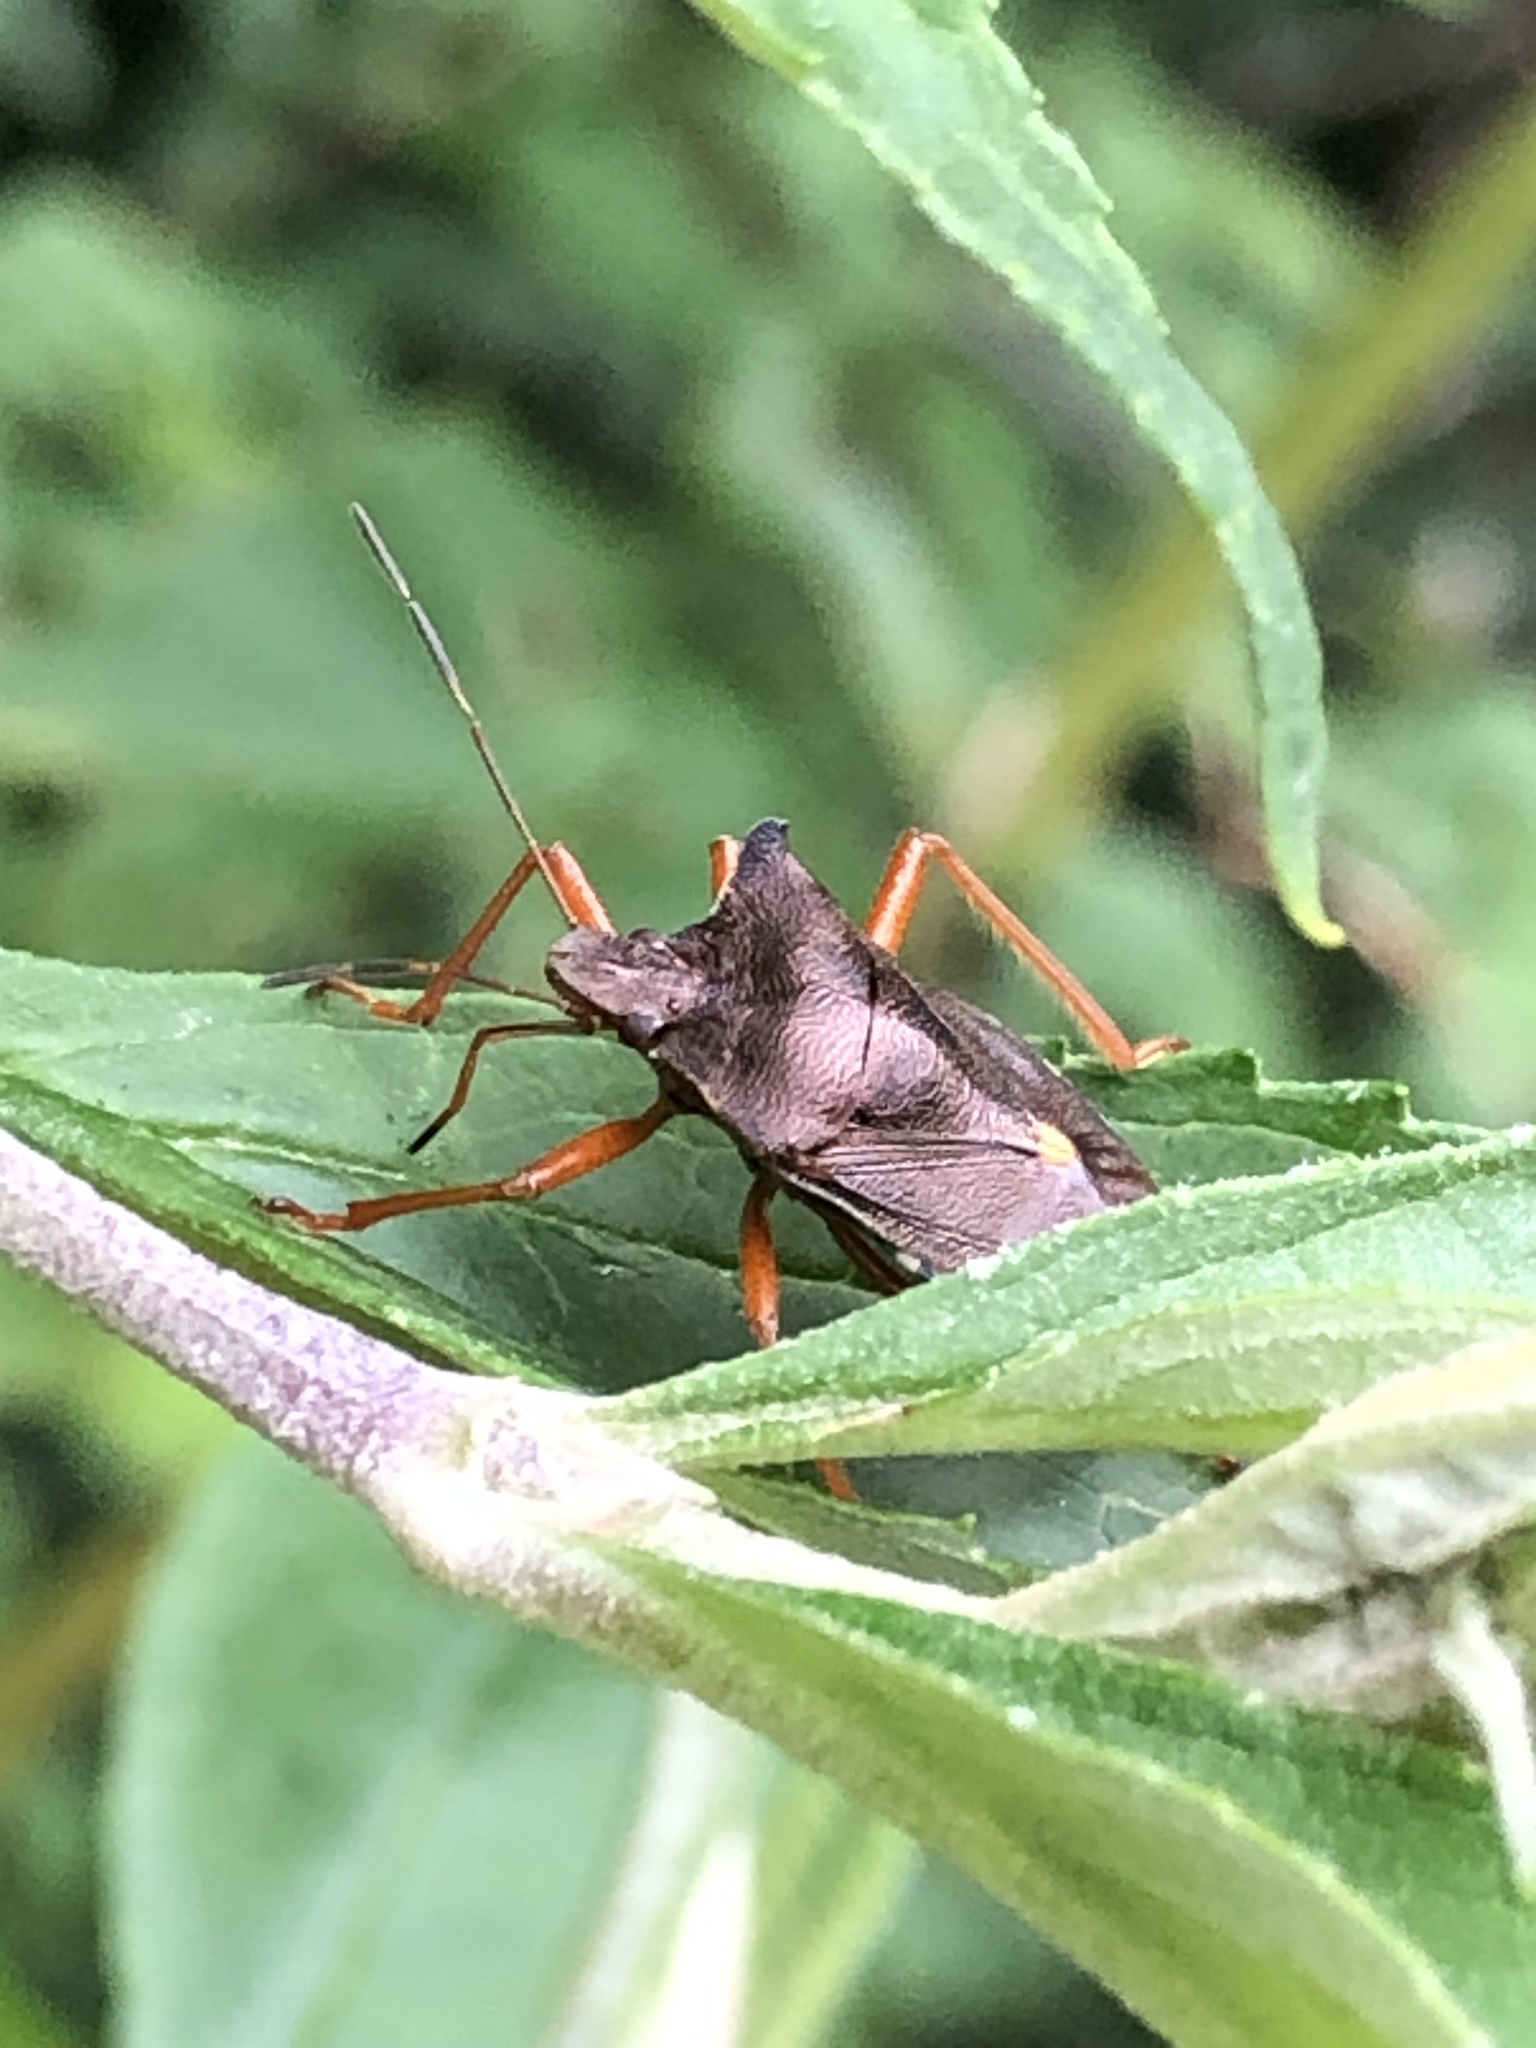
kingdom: Animalia
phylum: Arthropoda
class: Insecta
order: Hemiptera
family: Pentatomidae
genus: Pentatoma
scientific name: Pentatoma rufipes
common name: Forest bug
